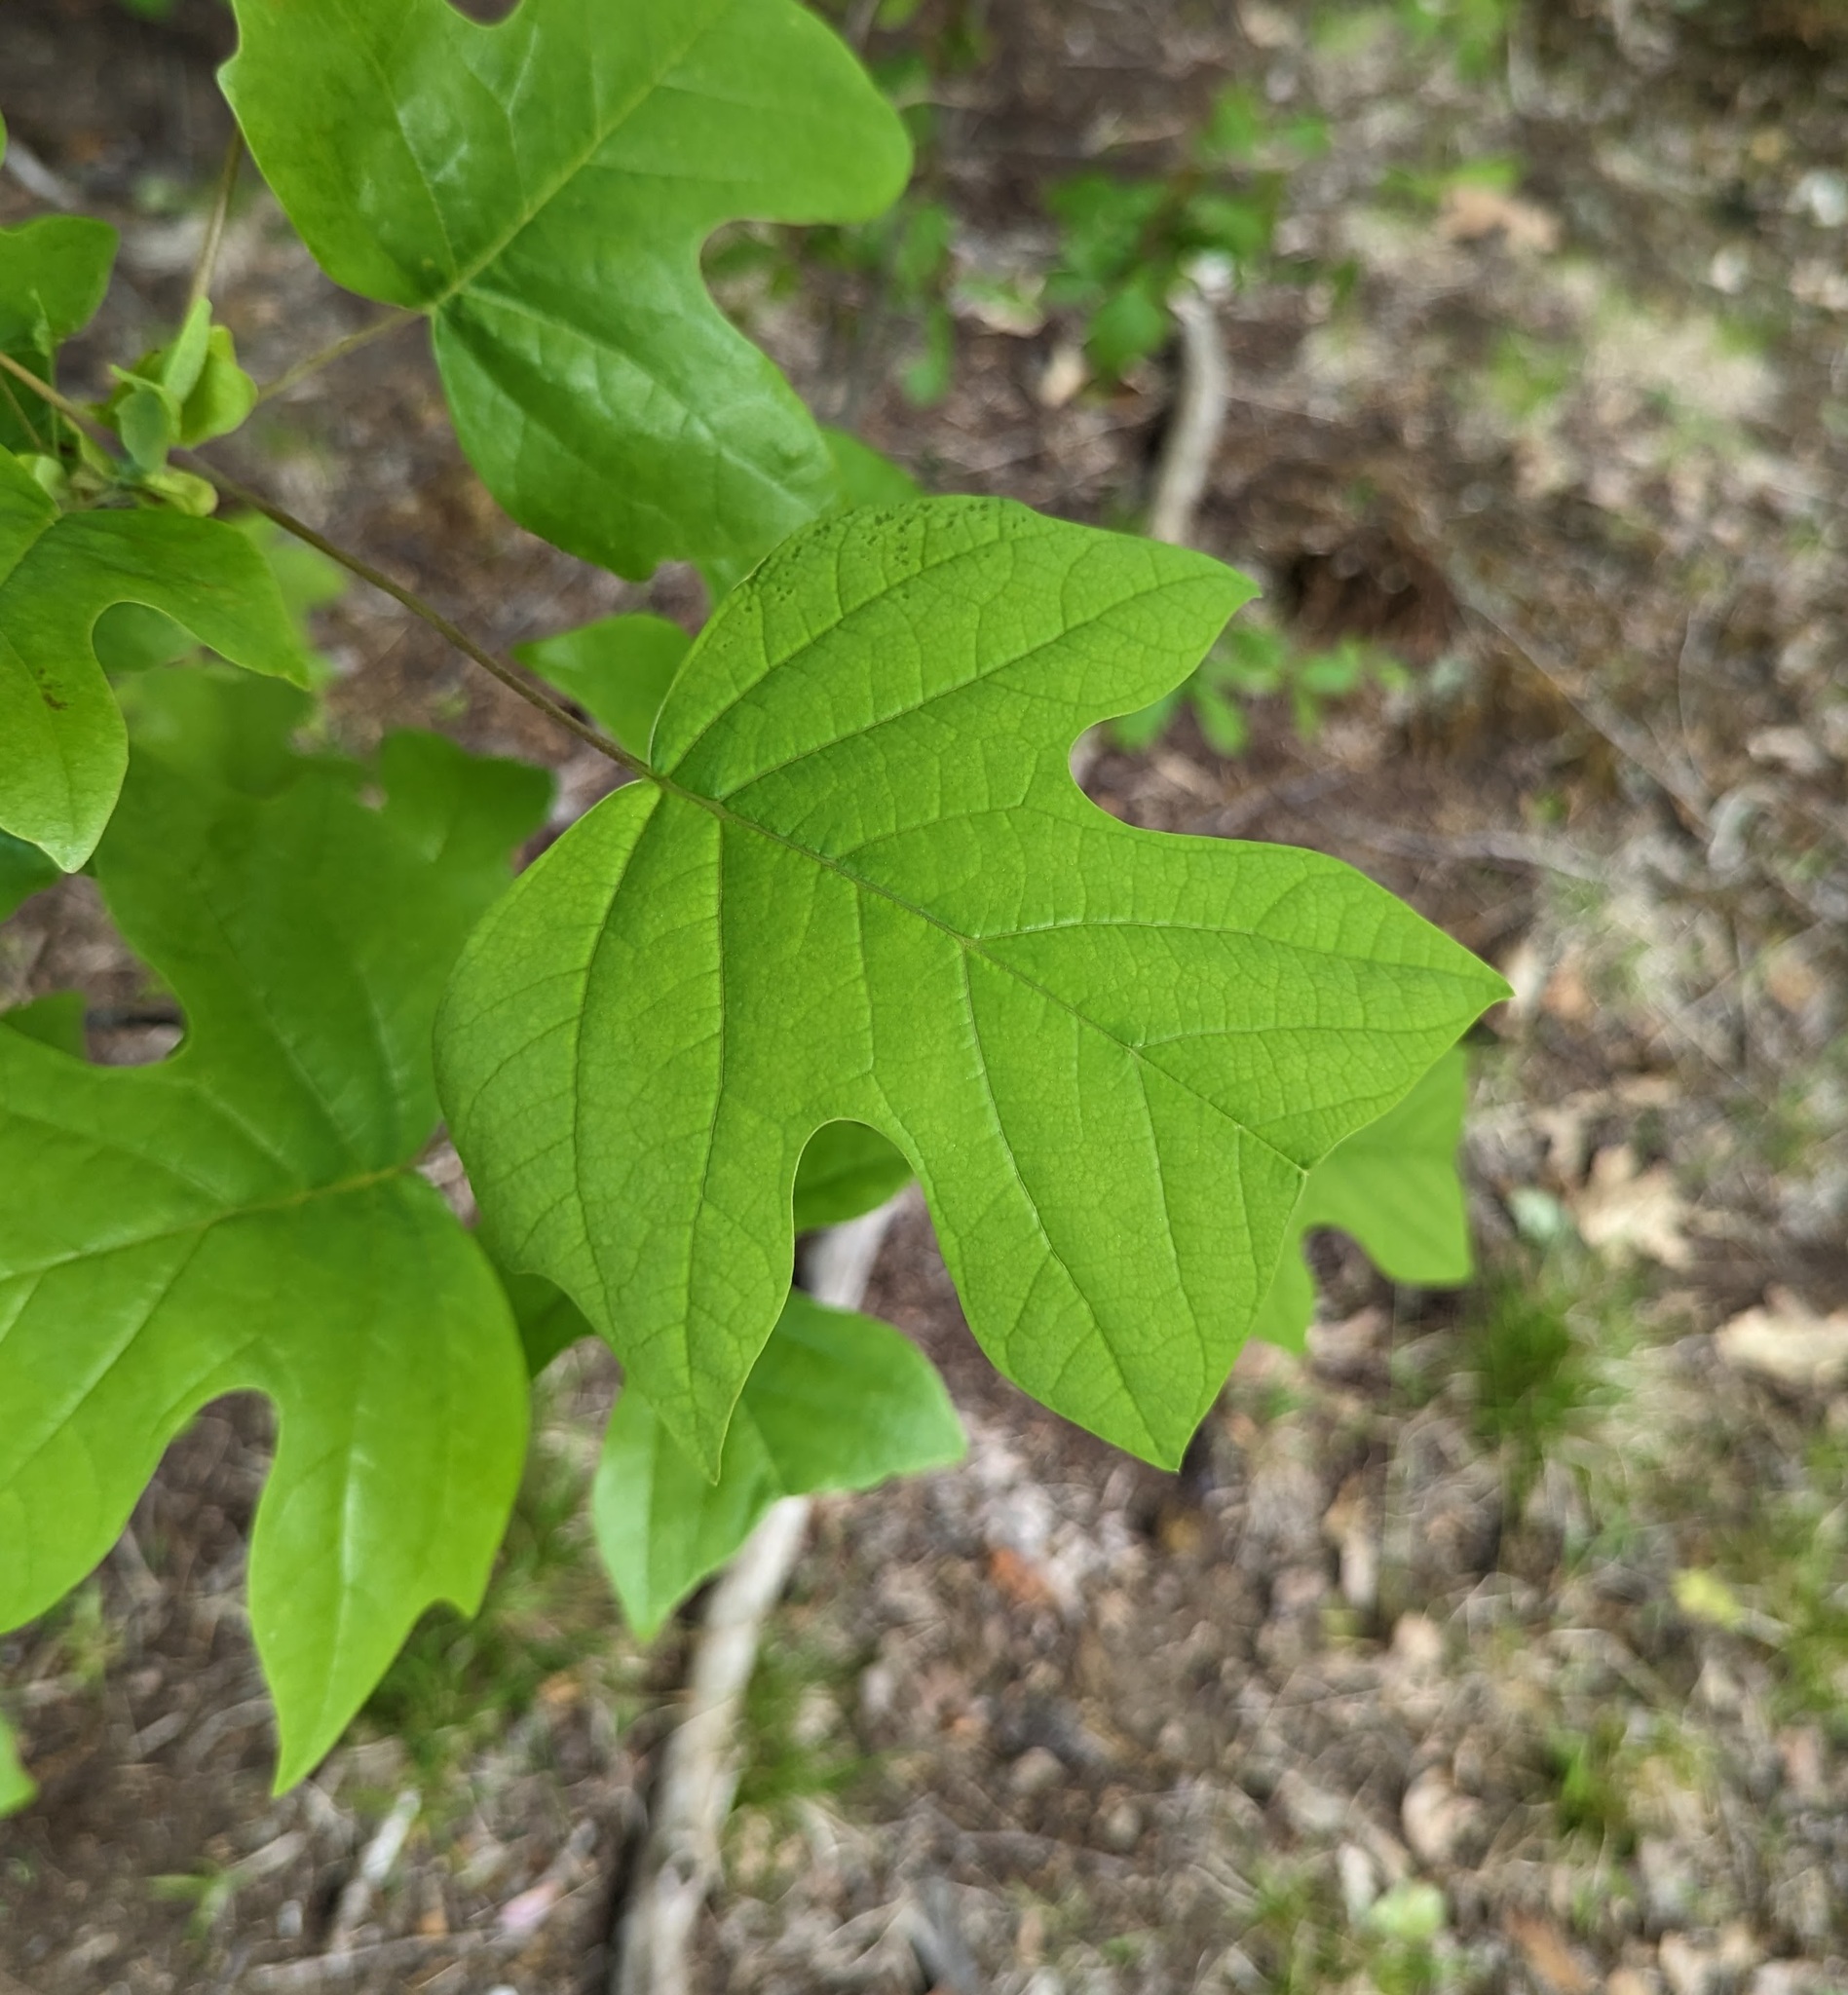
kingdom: Plantae
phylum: Tracheophyta
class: Magnoliopsida
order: Magnoliales
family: Magnoliaceae
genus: Liriodendron
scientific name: Liriodendron tulipifera
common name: Tulip tree
